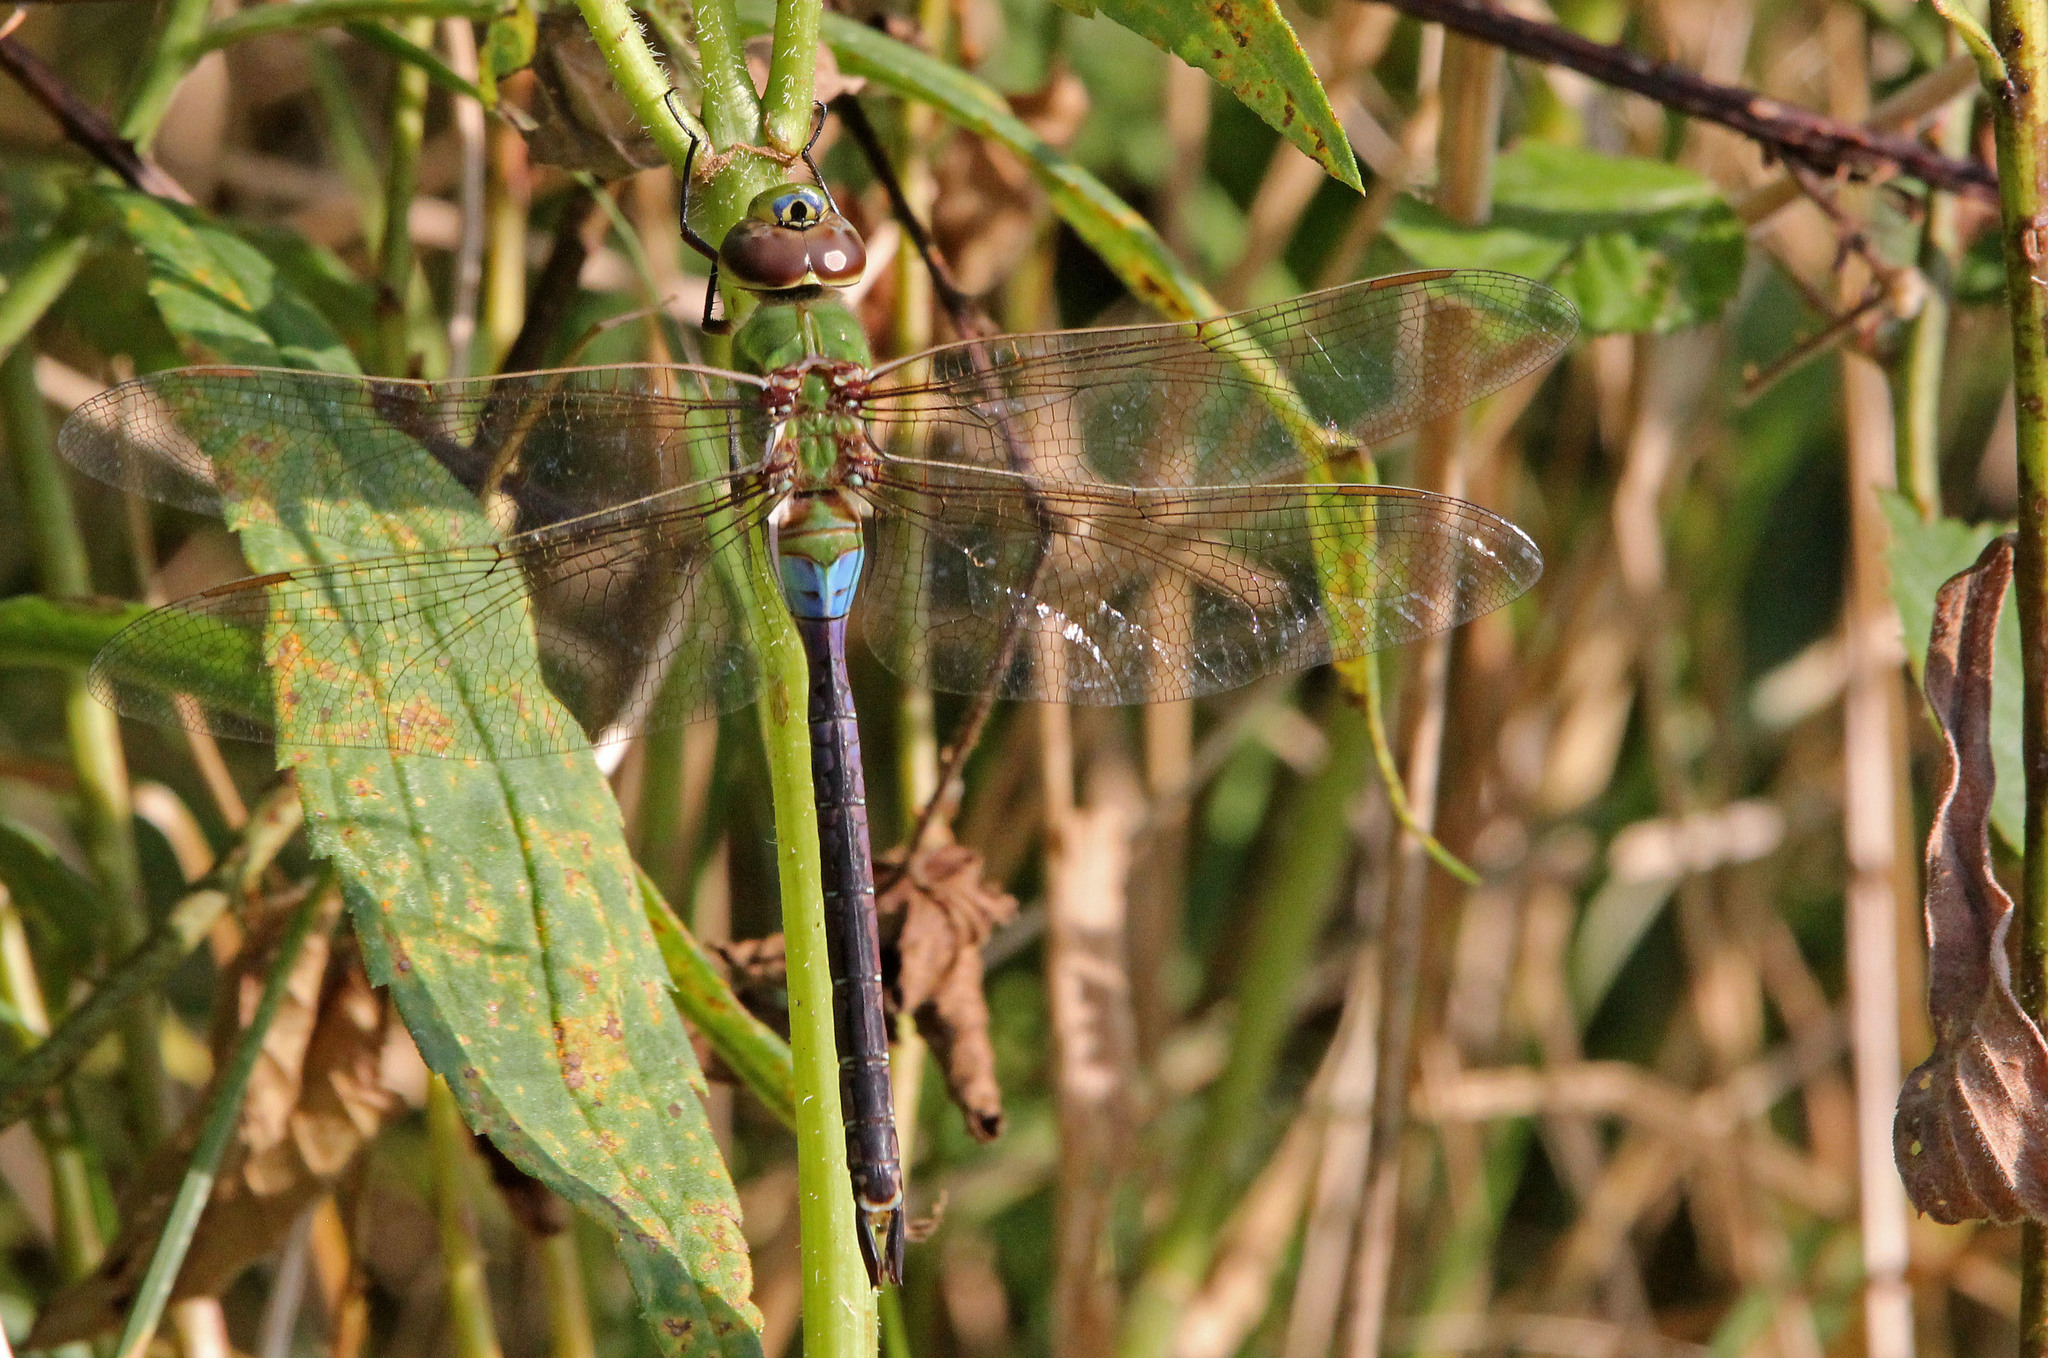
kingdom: Animalia
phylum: Arthropoda
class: Insecta
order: Odonata
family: Aeshnidae
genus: Anax
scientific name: Anax junius
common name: Common green darner
